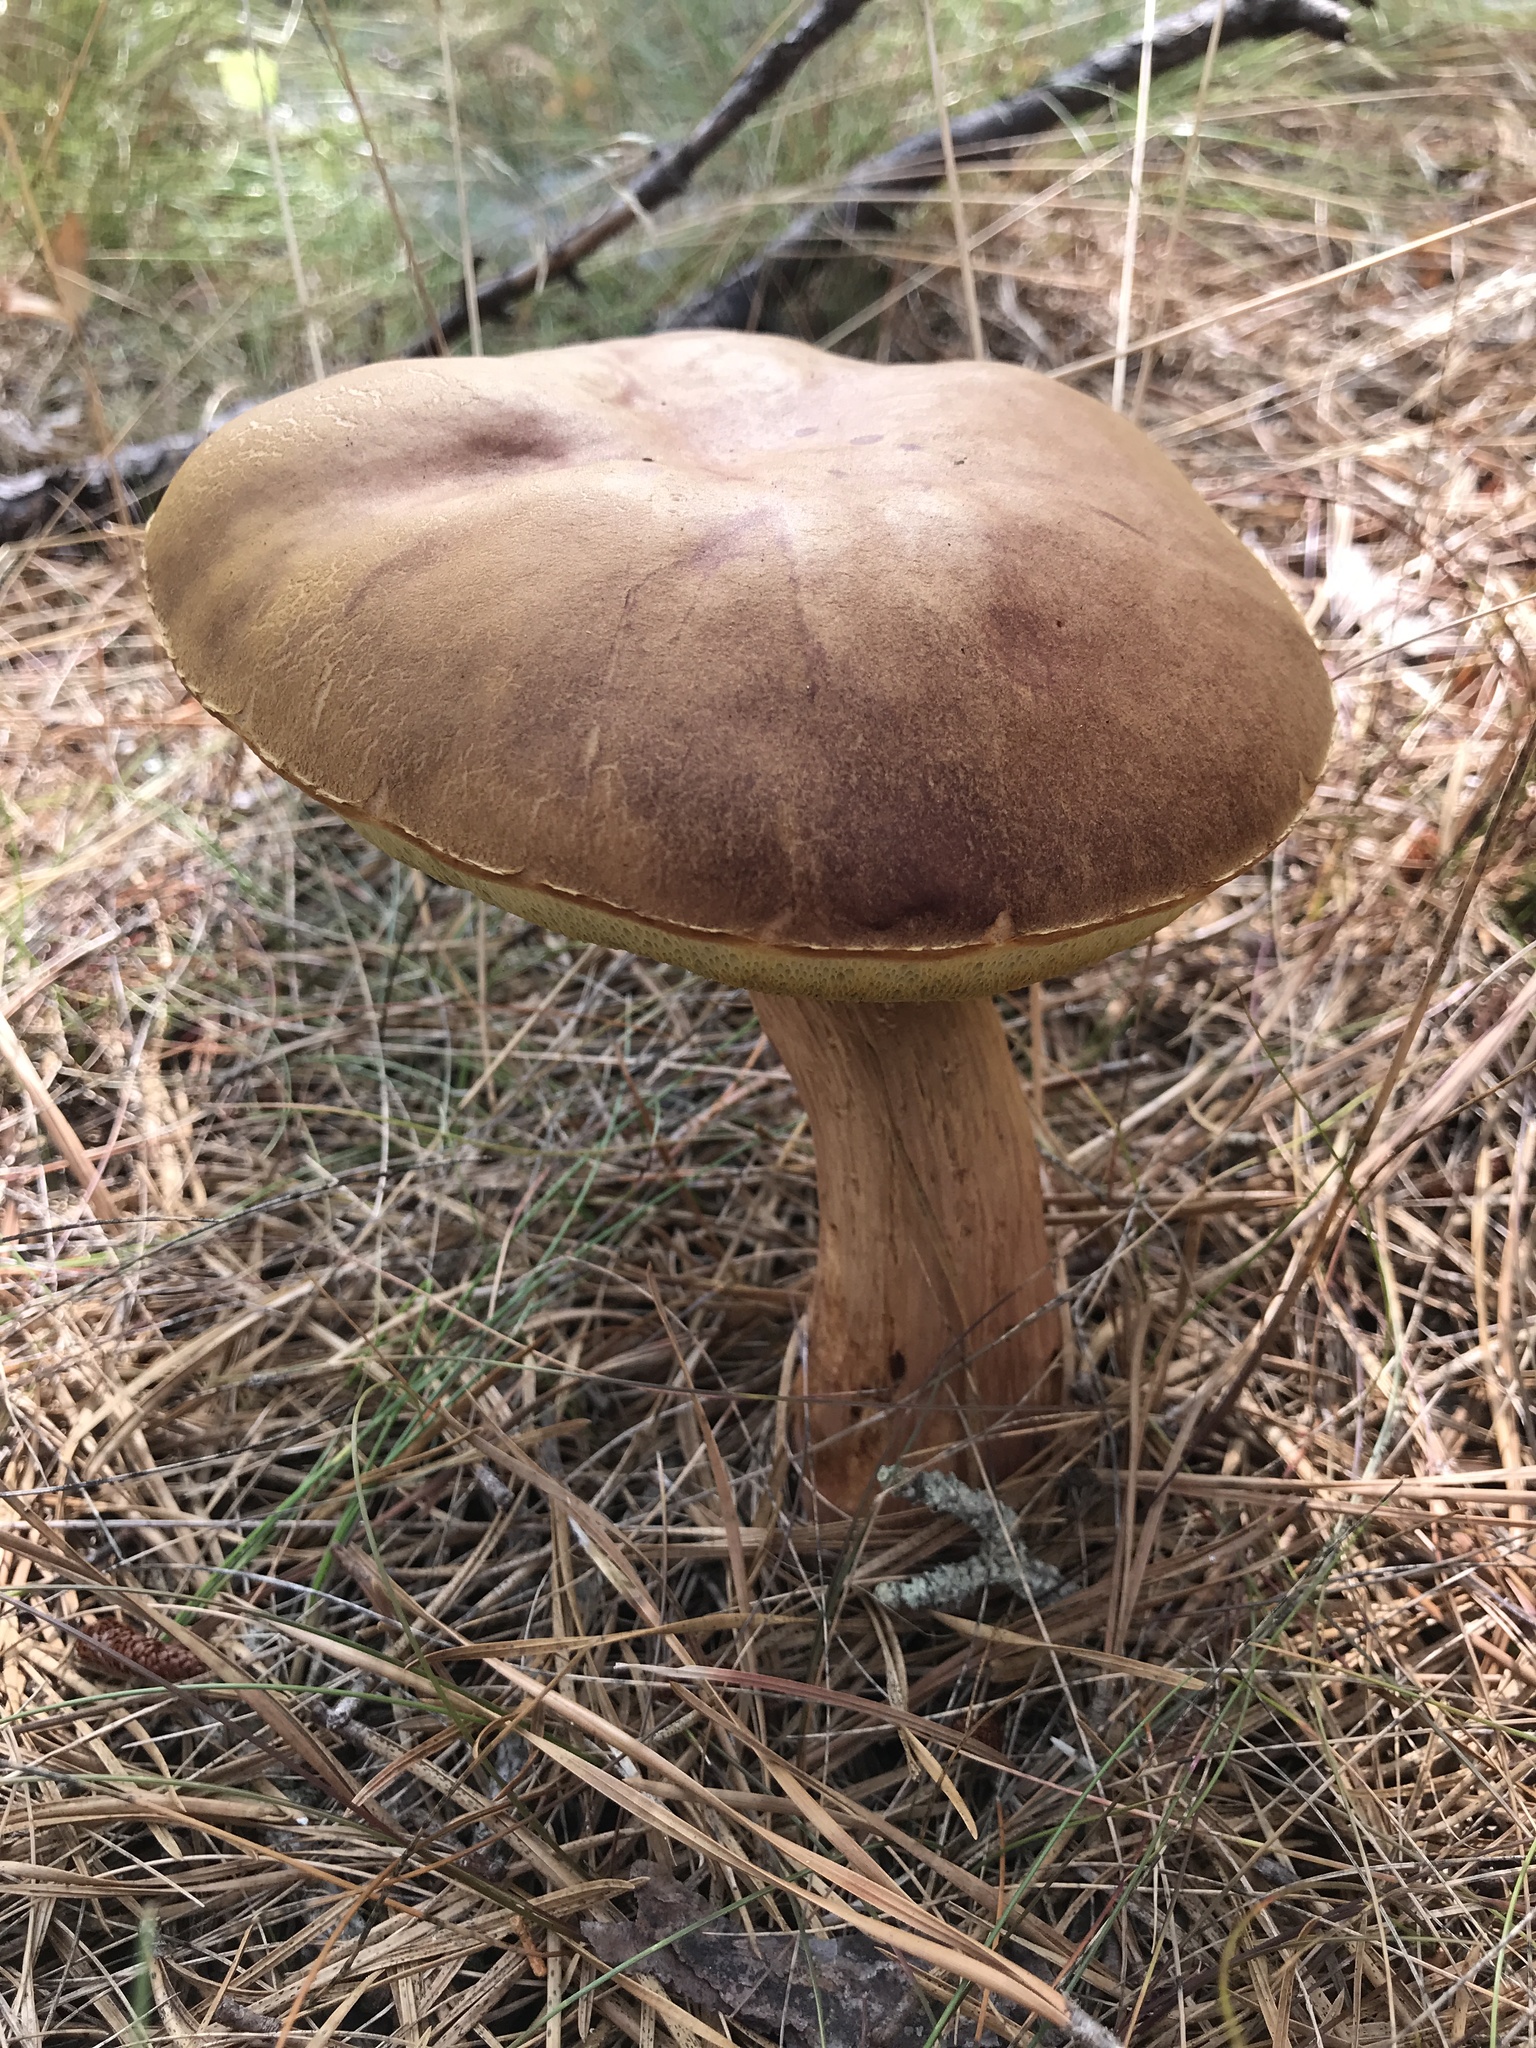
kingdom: Fungi
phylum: Basidiomycota
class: Agaricomycetes
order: Boletales
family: Boletaceae
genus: Aureoboletus
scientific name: Aureoboletus projectellus
